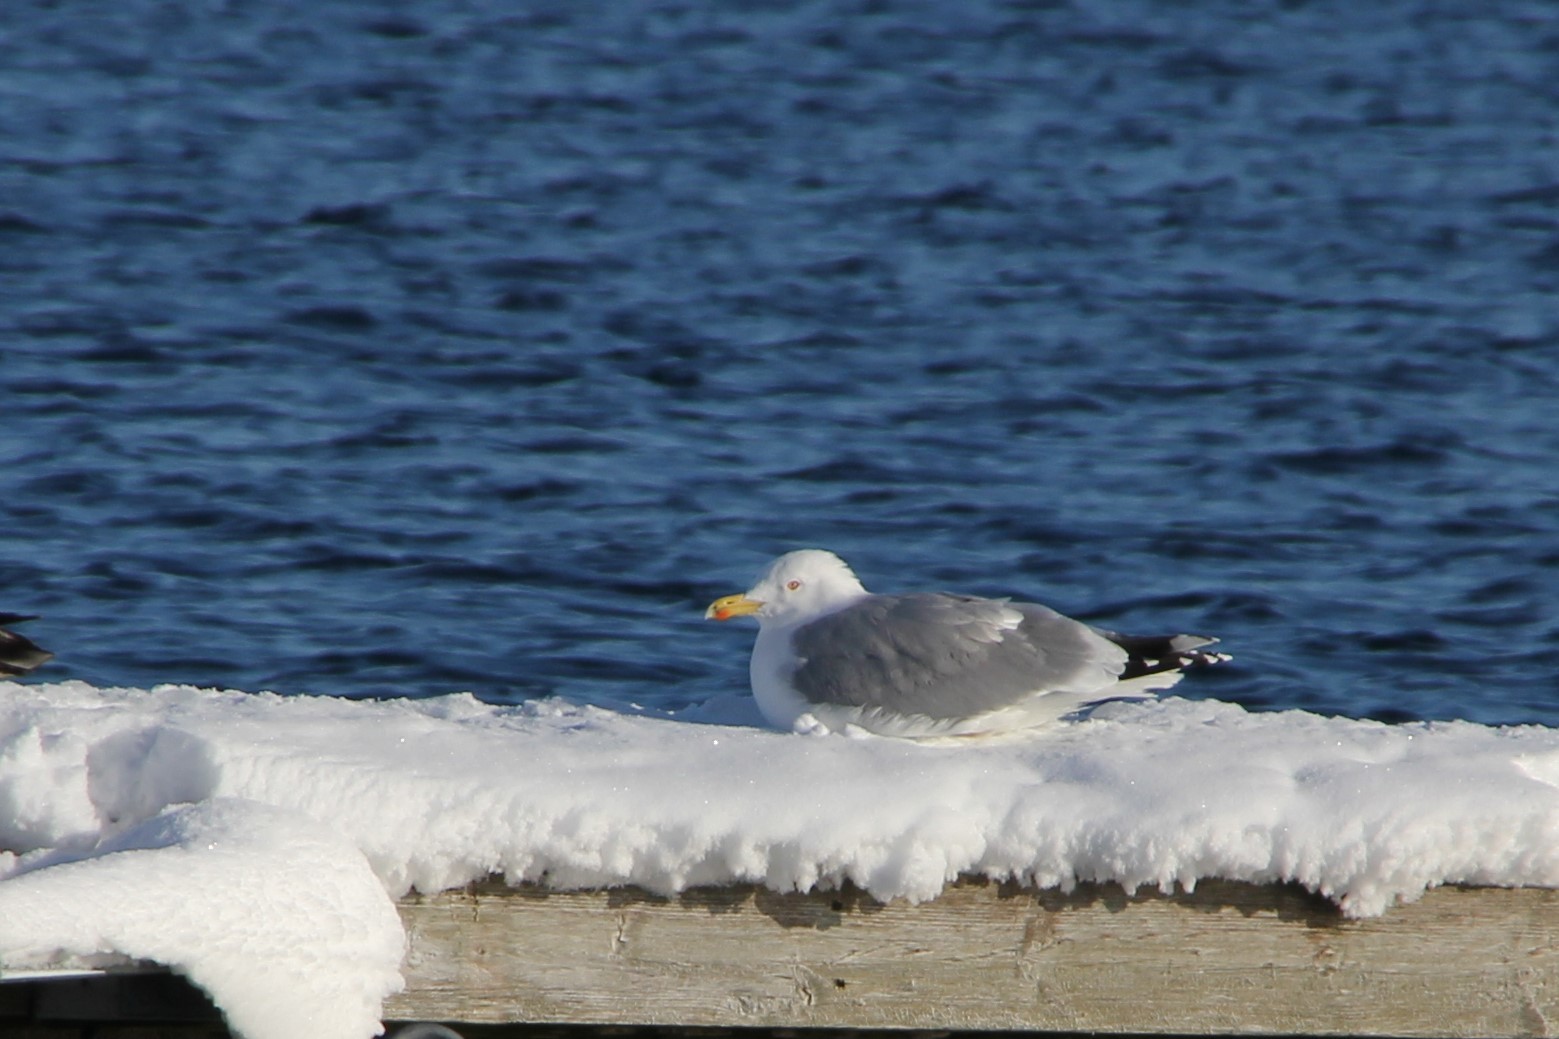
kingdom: Animalia
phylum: Chordata
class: Aves
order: Charadriiformes
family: Laridae
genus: Larus
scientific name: Larus argentatus
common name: Herring gull
